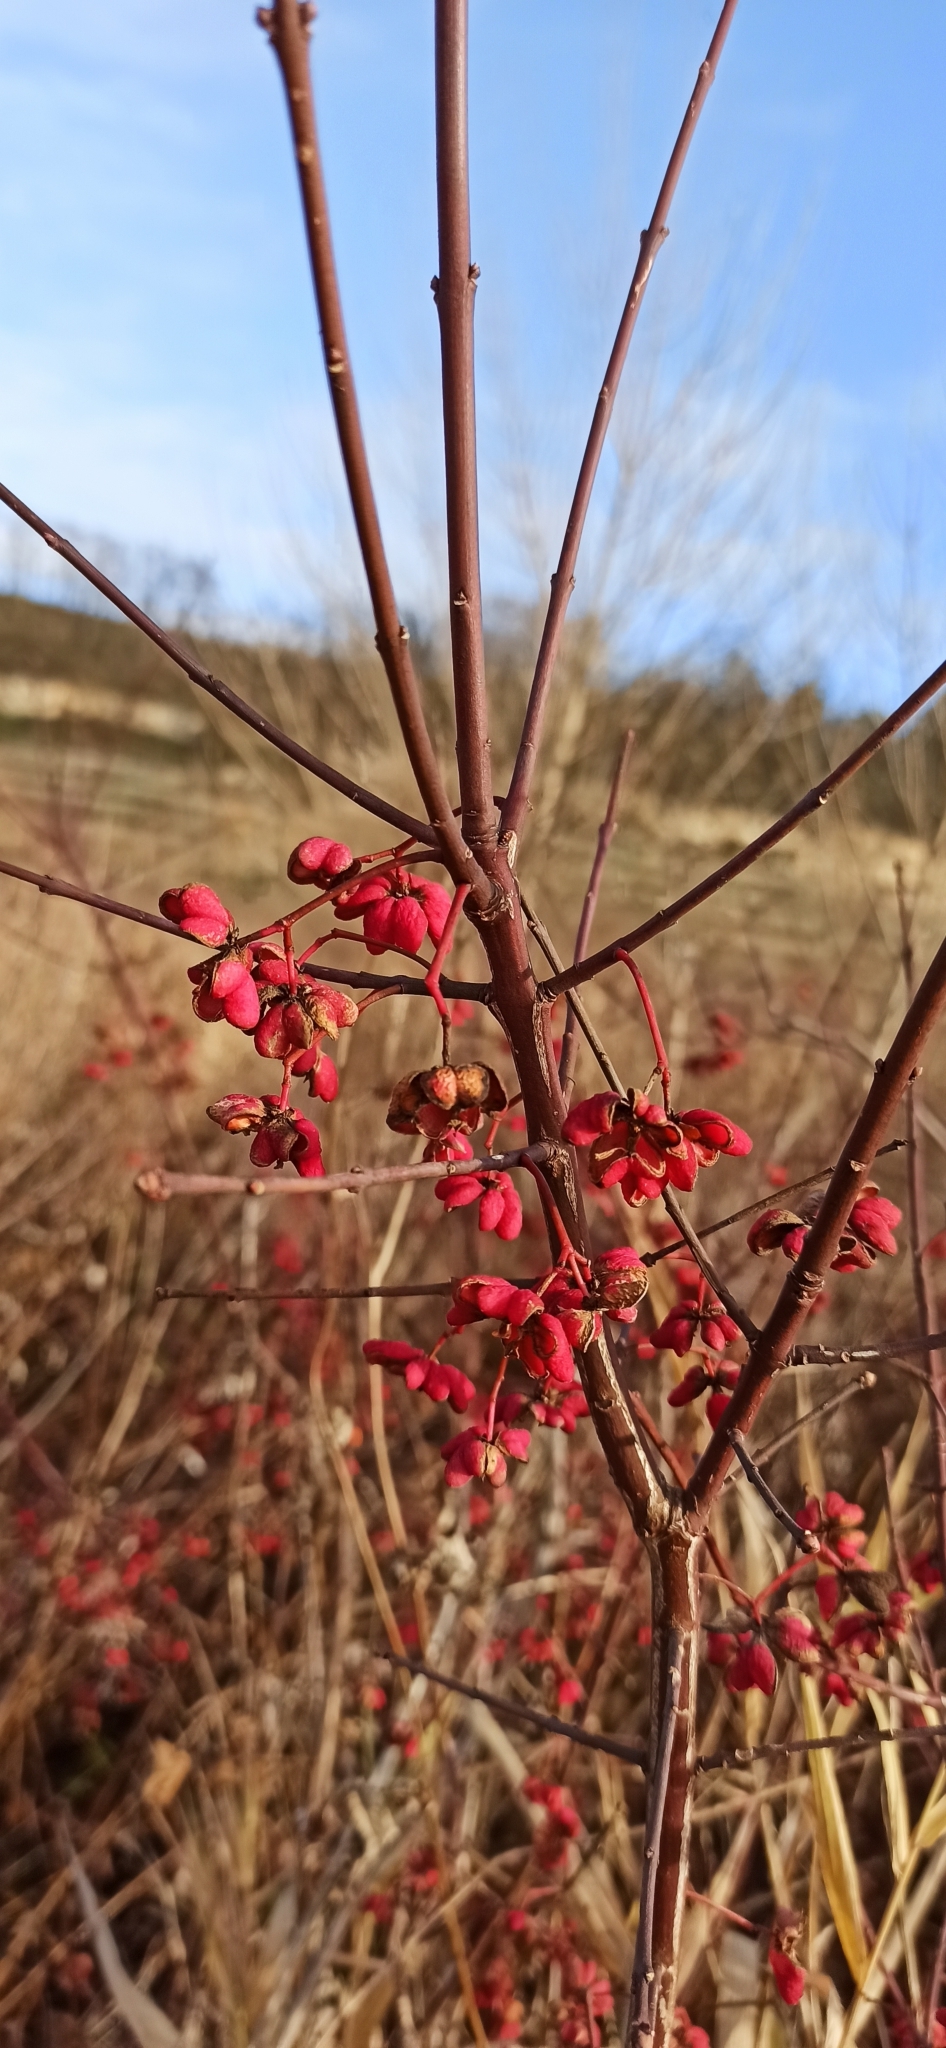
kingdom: Plantae
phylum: Tracheophyta
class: Magnoliopsida
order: Celastrales
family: Celastraceae
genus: Euonymus
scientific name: Euonymus europaeus
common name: Spindle
